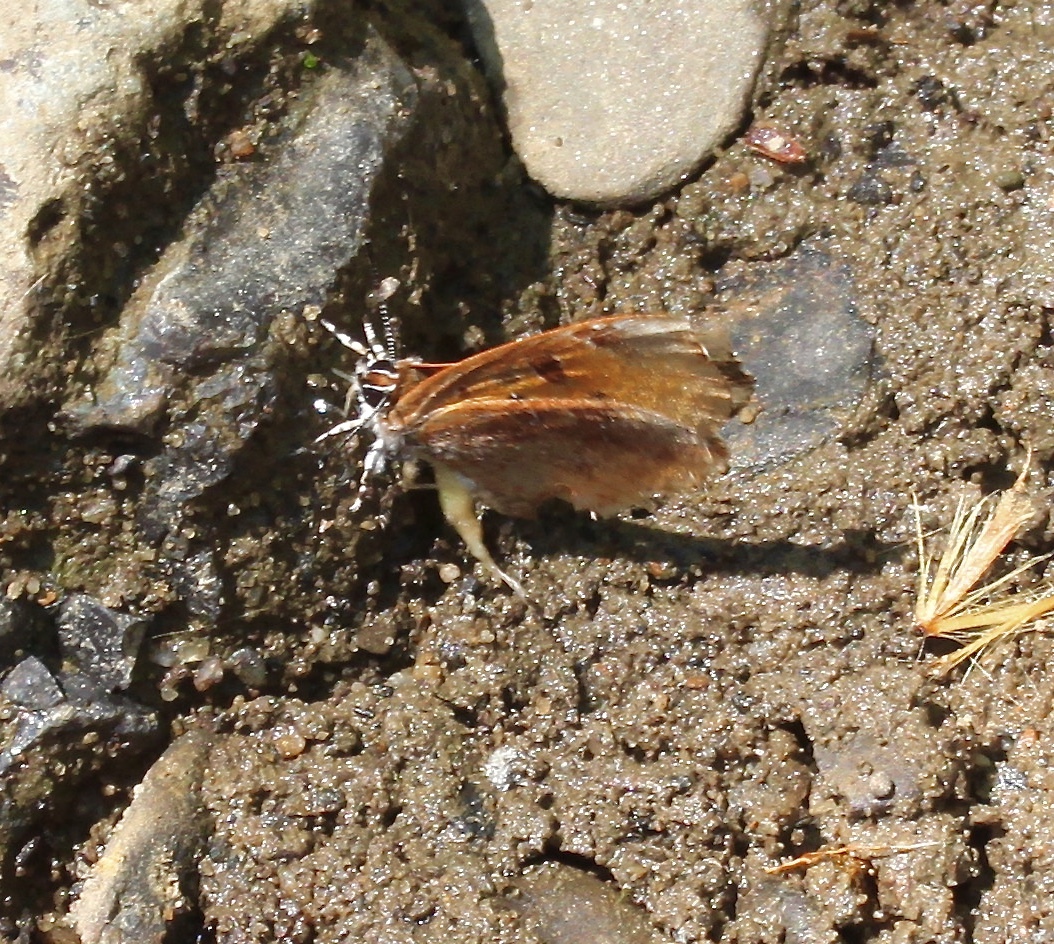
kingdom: Animalia
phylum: Arthropoda
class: Insecta
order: Lepidoptera
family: Lycaenidae
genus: Feniseca
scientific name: Feniseca tarquinius
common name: Harvester
